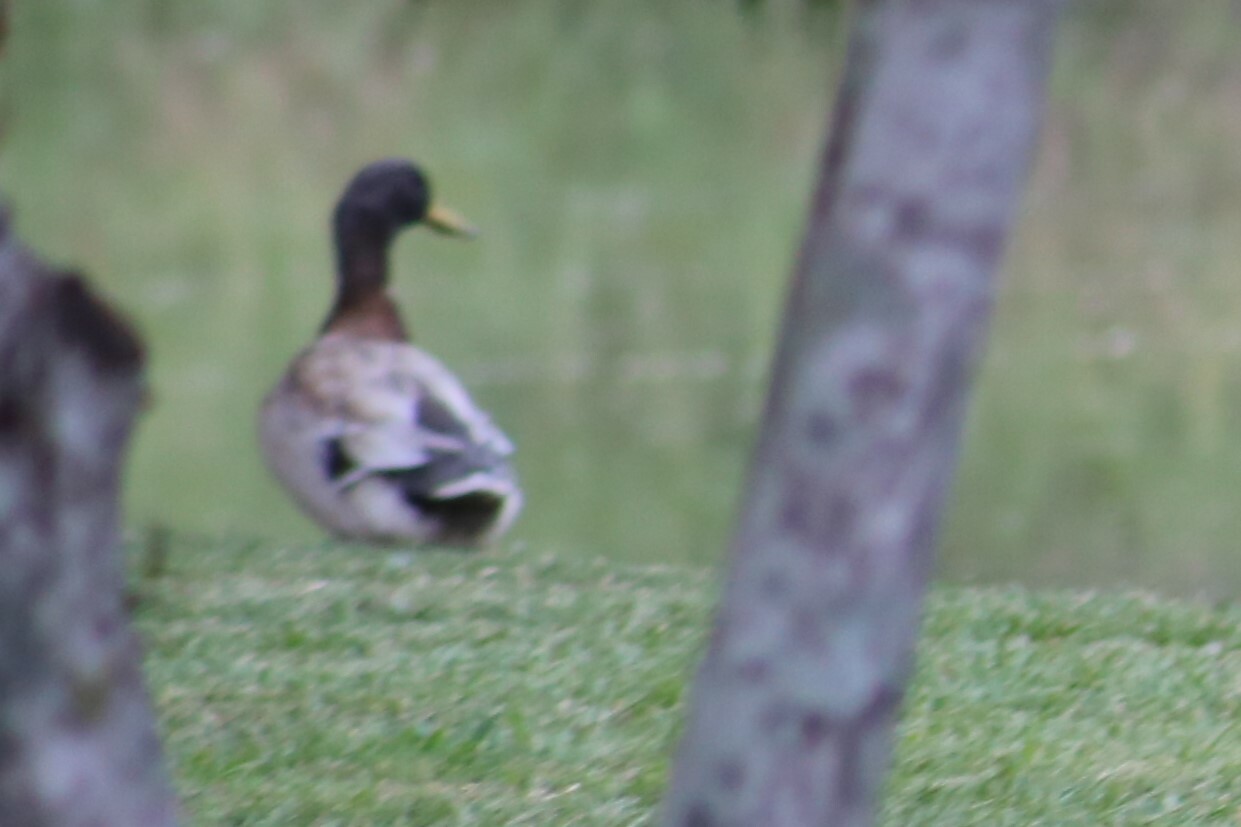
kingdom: Animalia
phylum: Chordata
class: Aves
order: Anseriformes
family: Anatidae
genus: Anas
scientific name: Anas platyrhynchos
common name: Mallard
